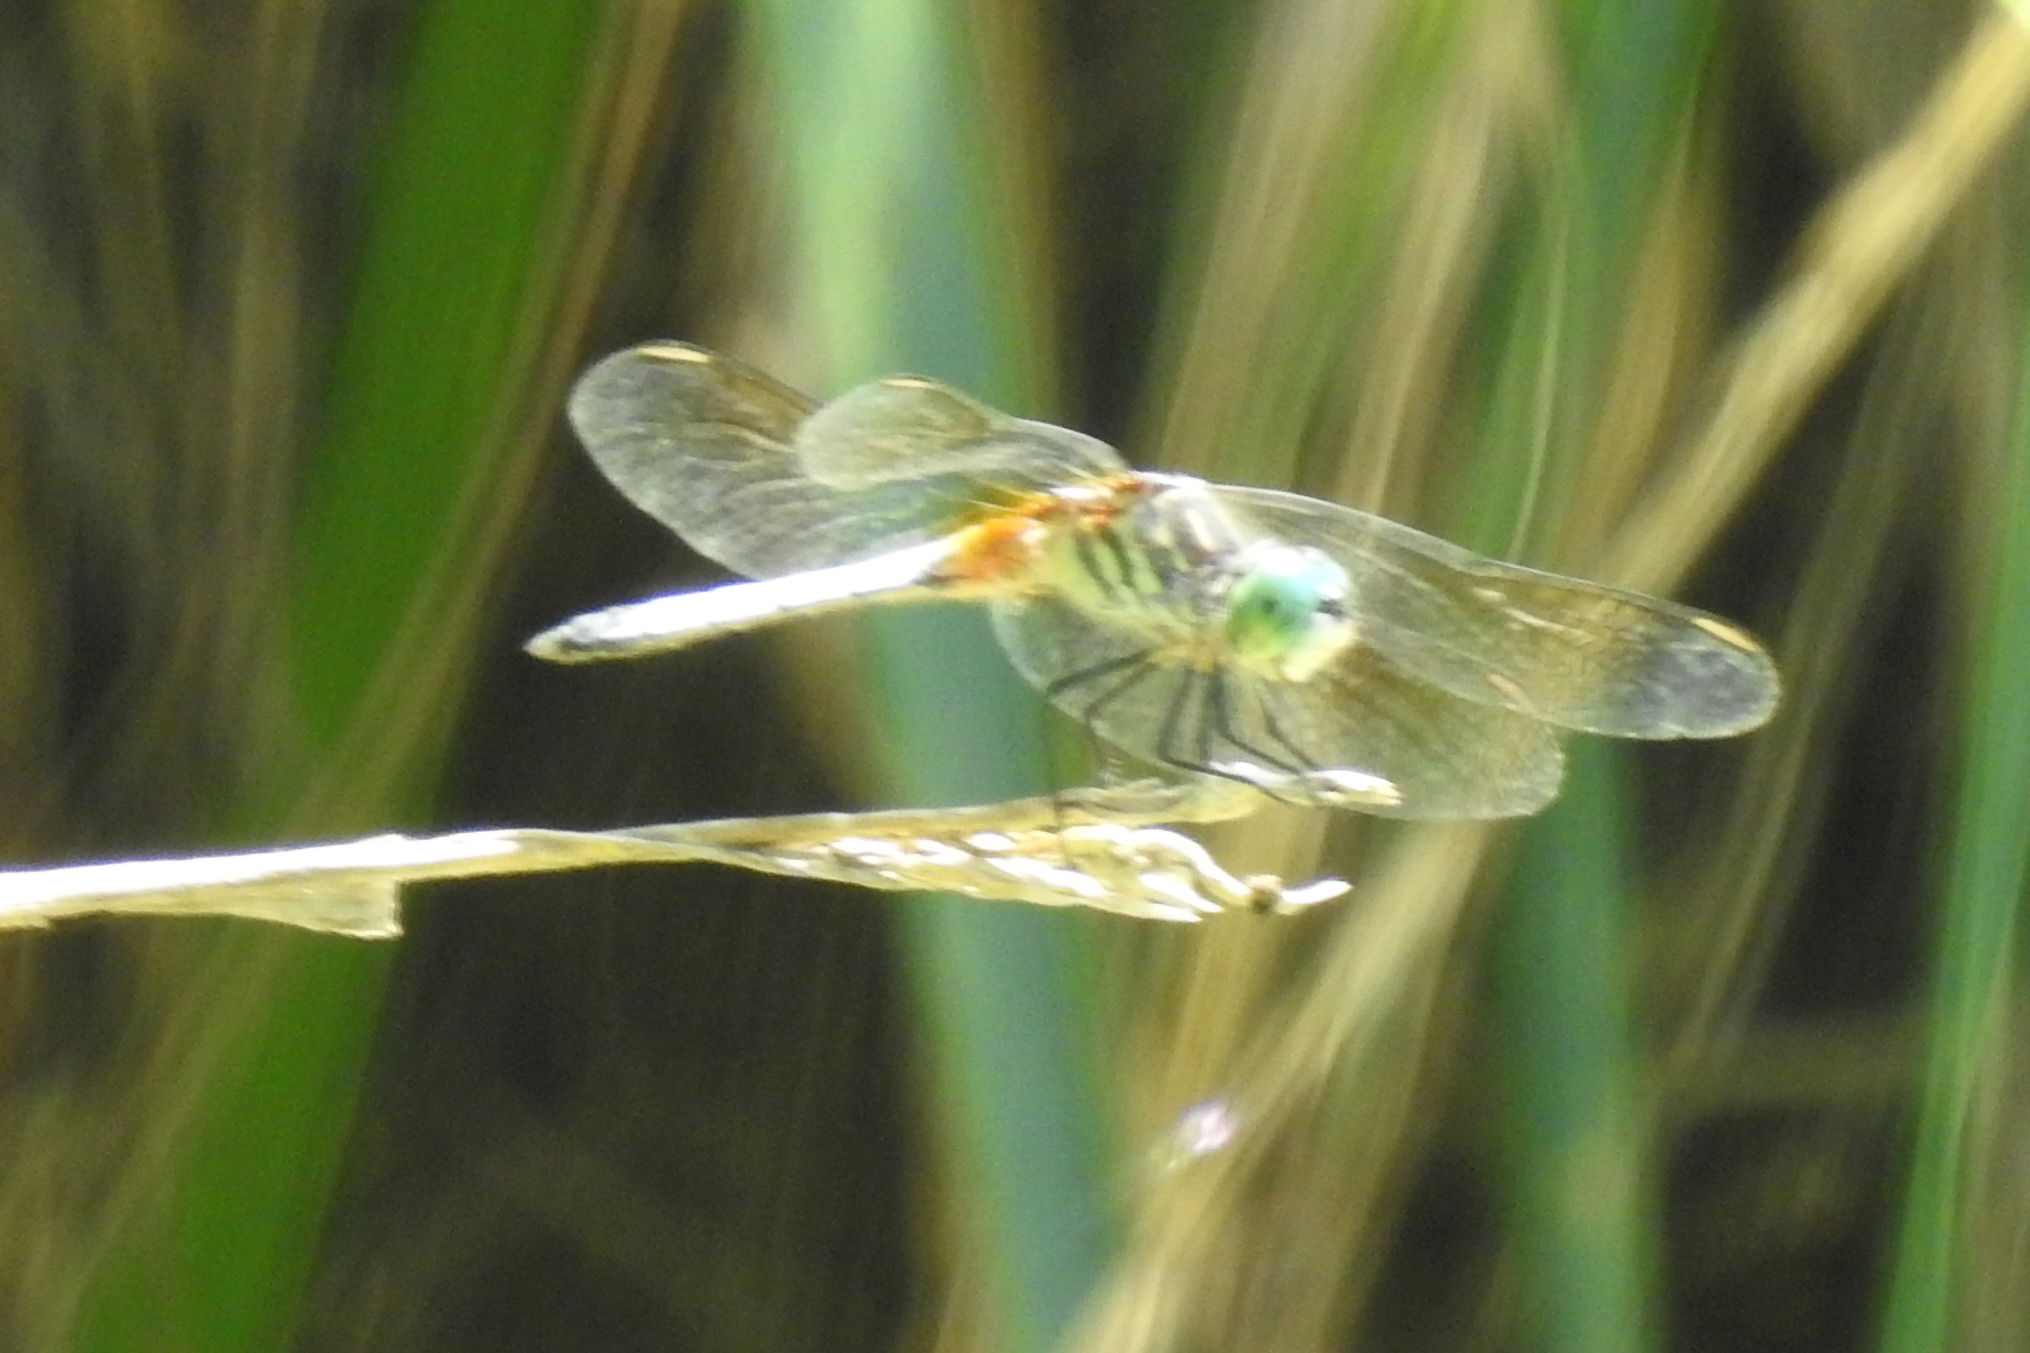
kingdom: Animalia
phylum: Arthropoda
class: Insecta
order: Odonata
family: Libellulidae
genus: Pachydiplax
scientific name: Pachydiplax longipennis
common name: Blue dasher
